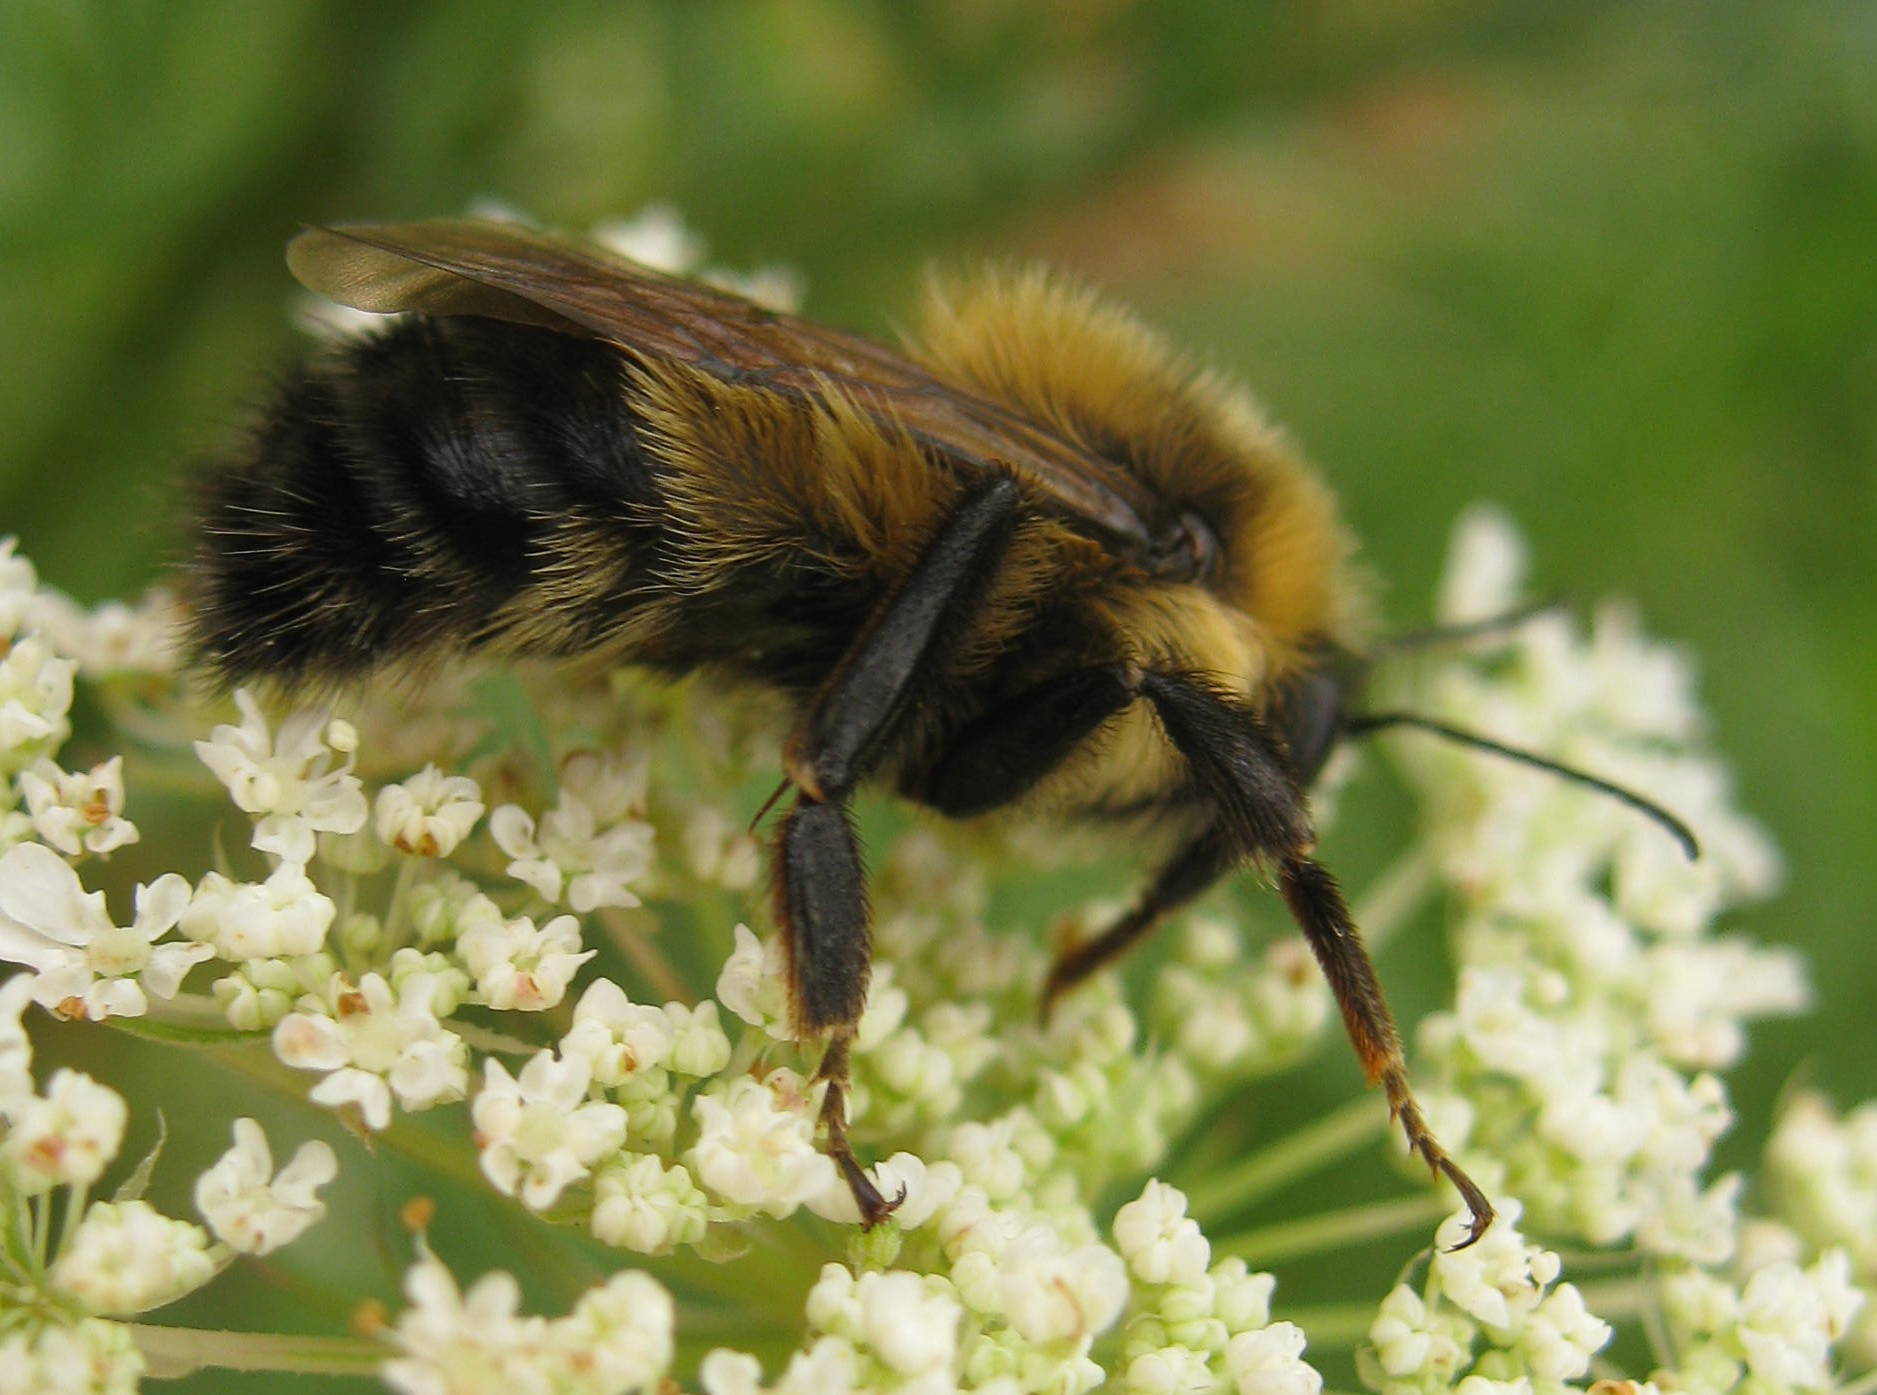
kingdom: Animalia
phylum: Arthropoda
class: Insecta
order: Hymenoptera
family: Apidae
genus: Pyrobombus
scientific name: Pyrobombus
